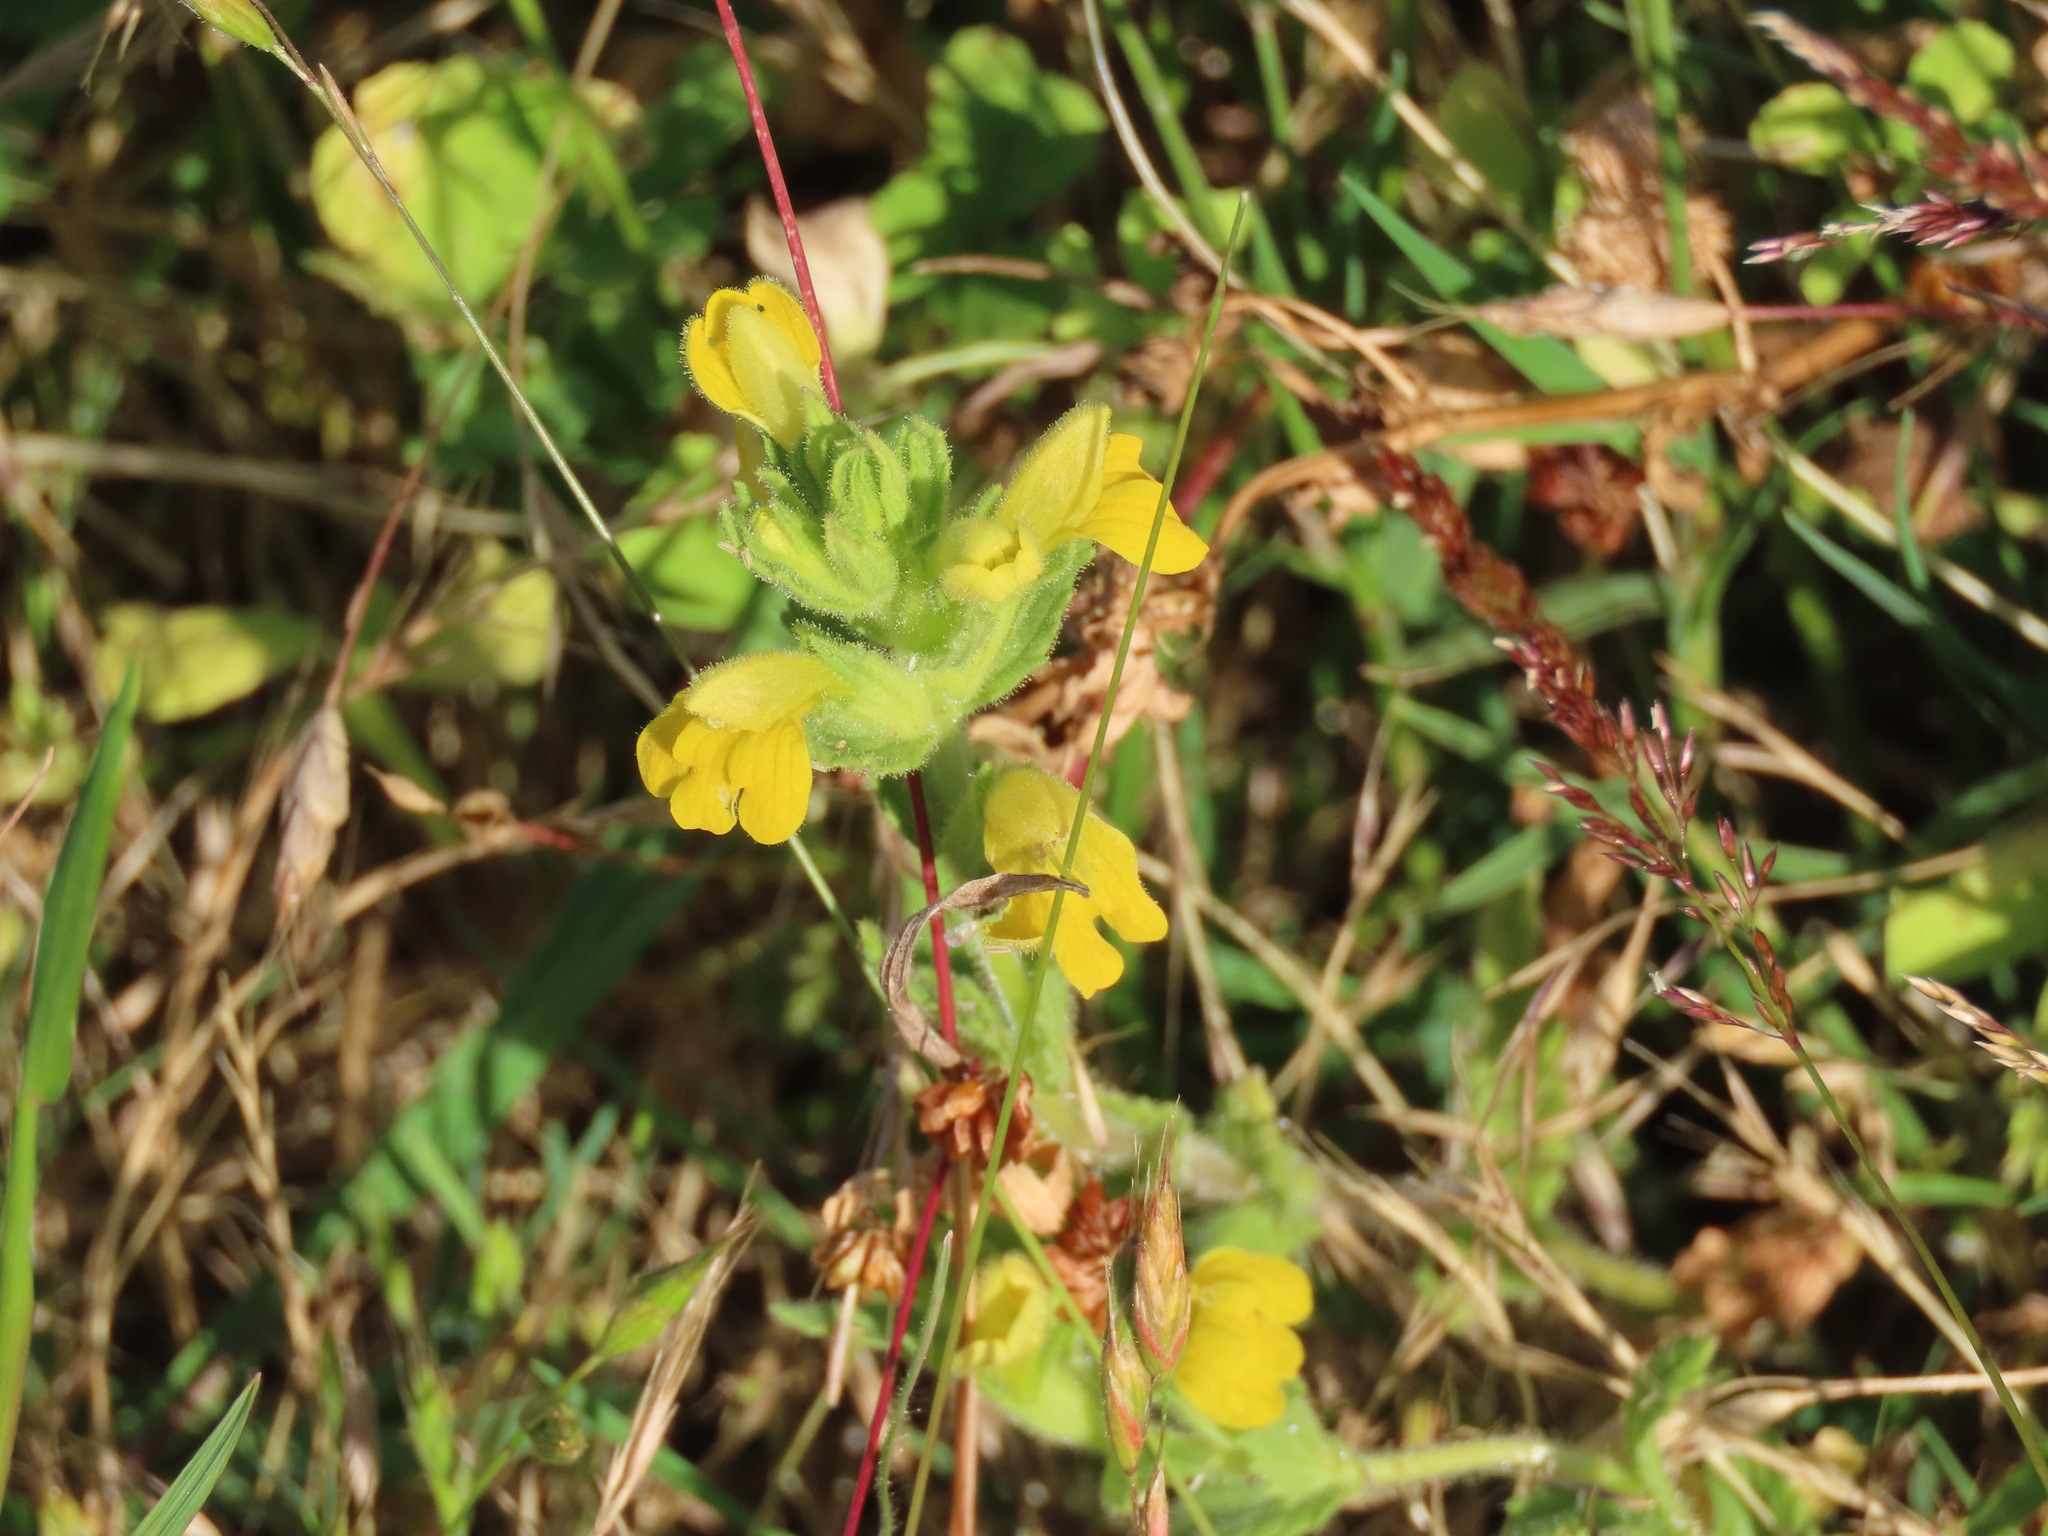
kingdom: Plantae
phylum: Tracheophyta
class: Magnoliopsida
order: Lamiales
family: Orobanchaceae
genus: Bellardia
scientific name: Bellardia viscosa
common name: Sticky parentucellia
